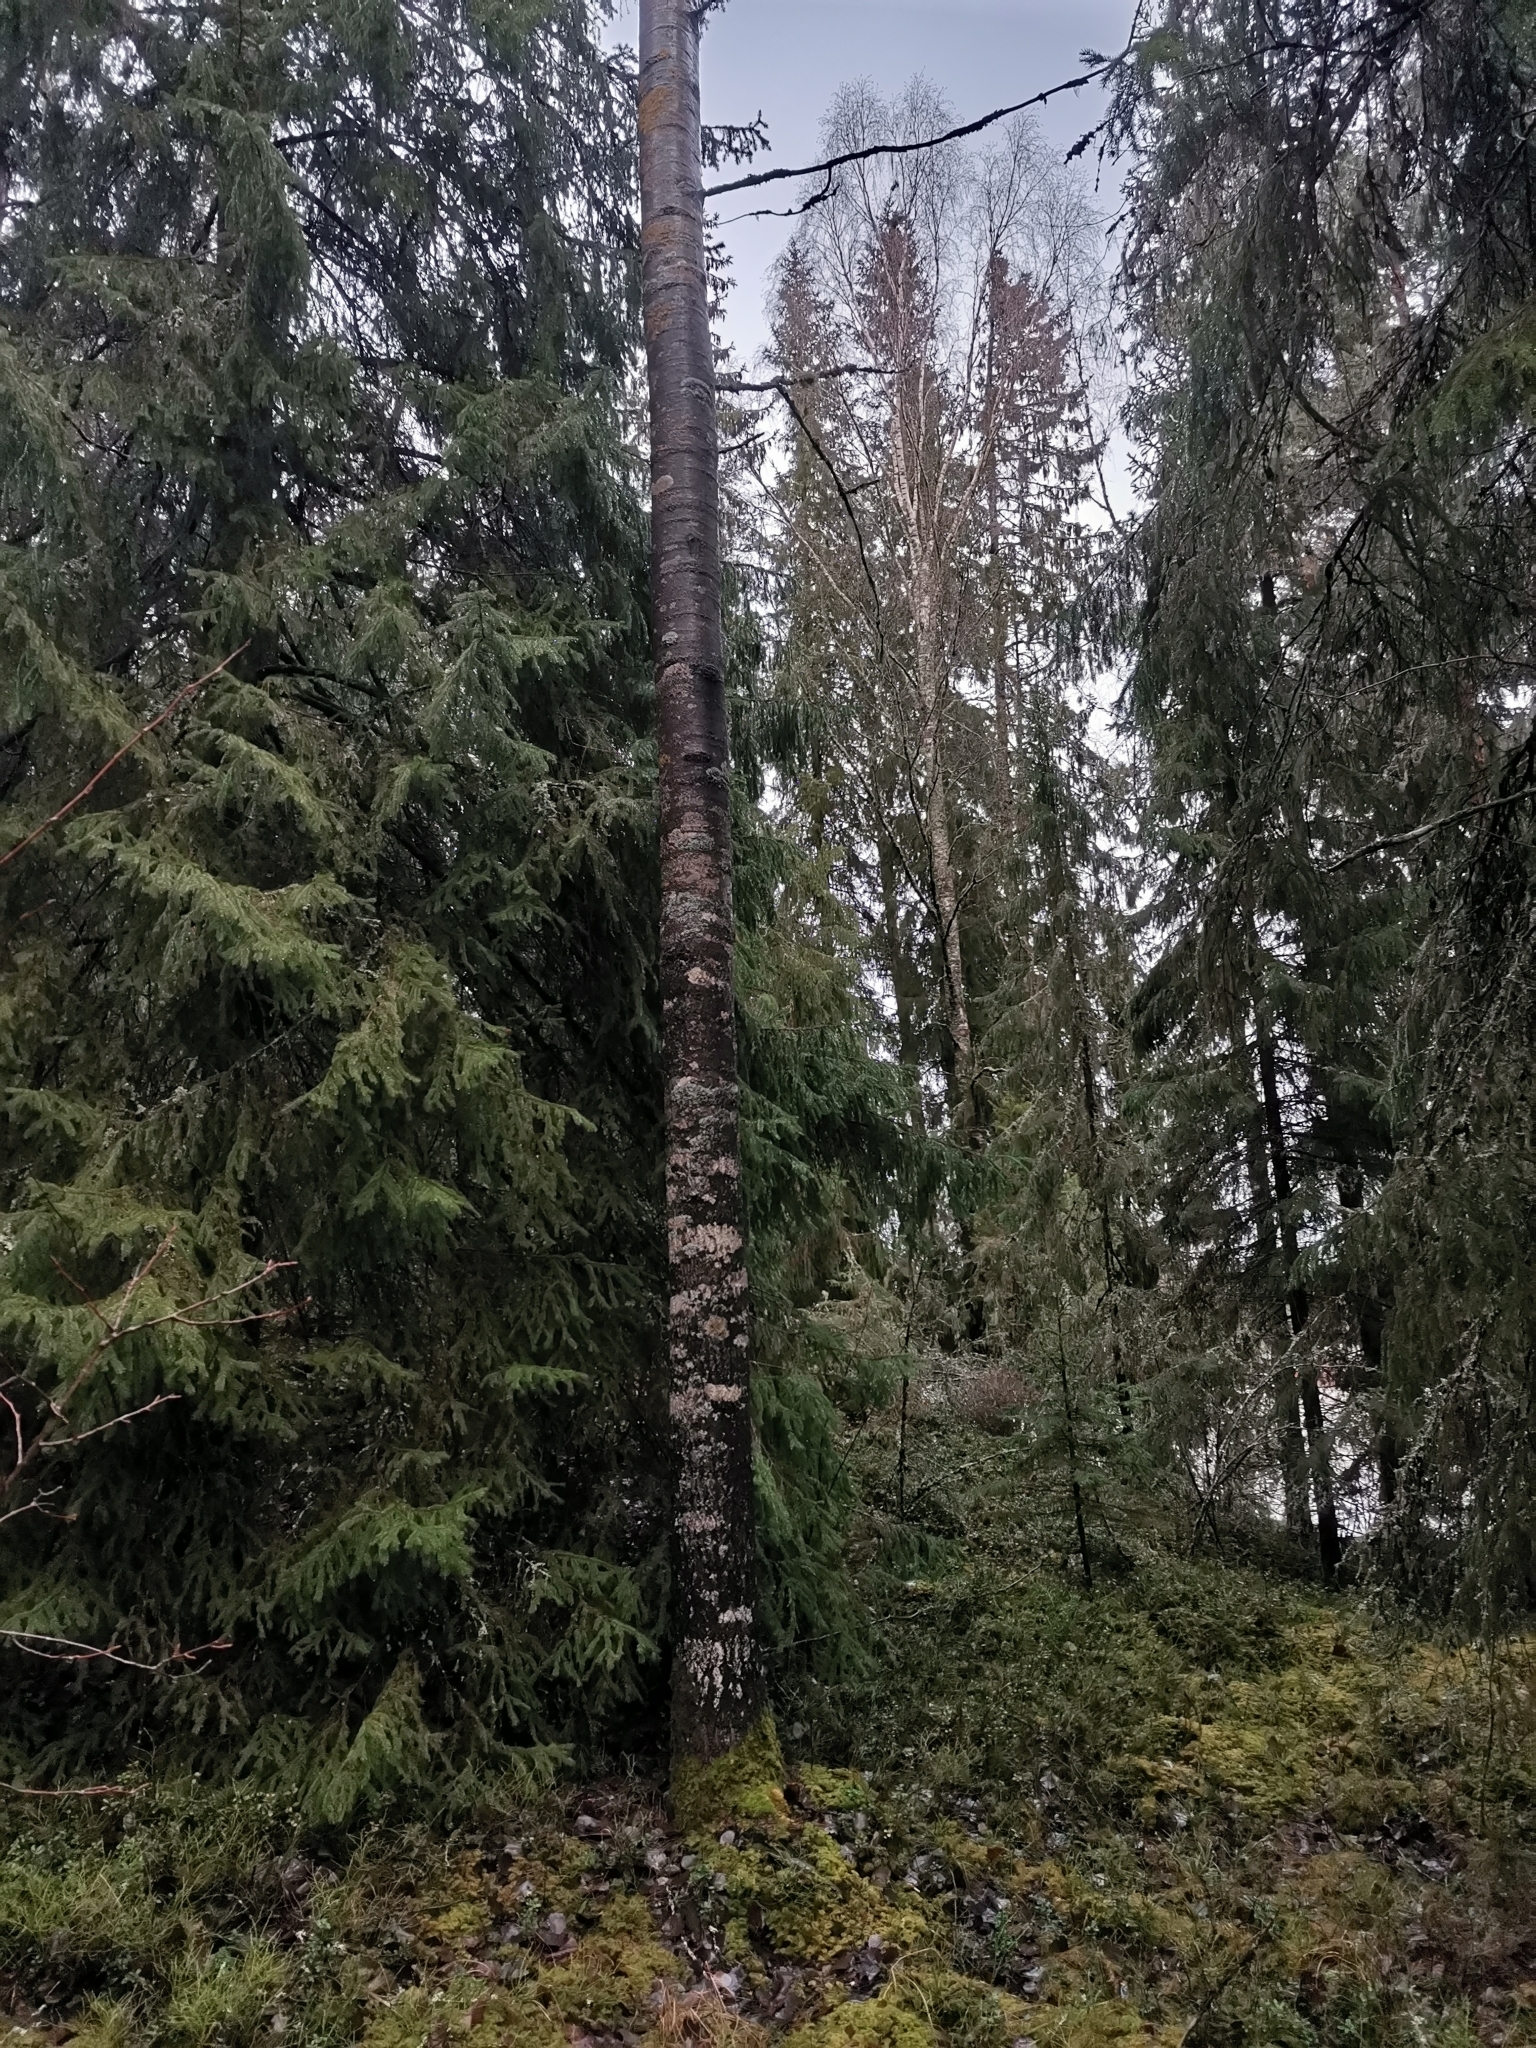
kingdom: Animalia
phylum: Chordata
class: Mammalia
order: Rodentia
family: Sciuridae
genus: Pteromys
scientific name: Pteromys volans
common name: Siberian flying squirrel
